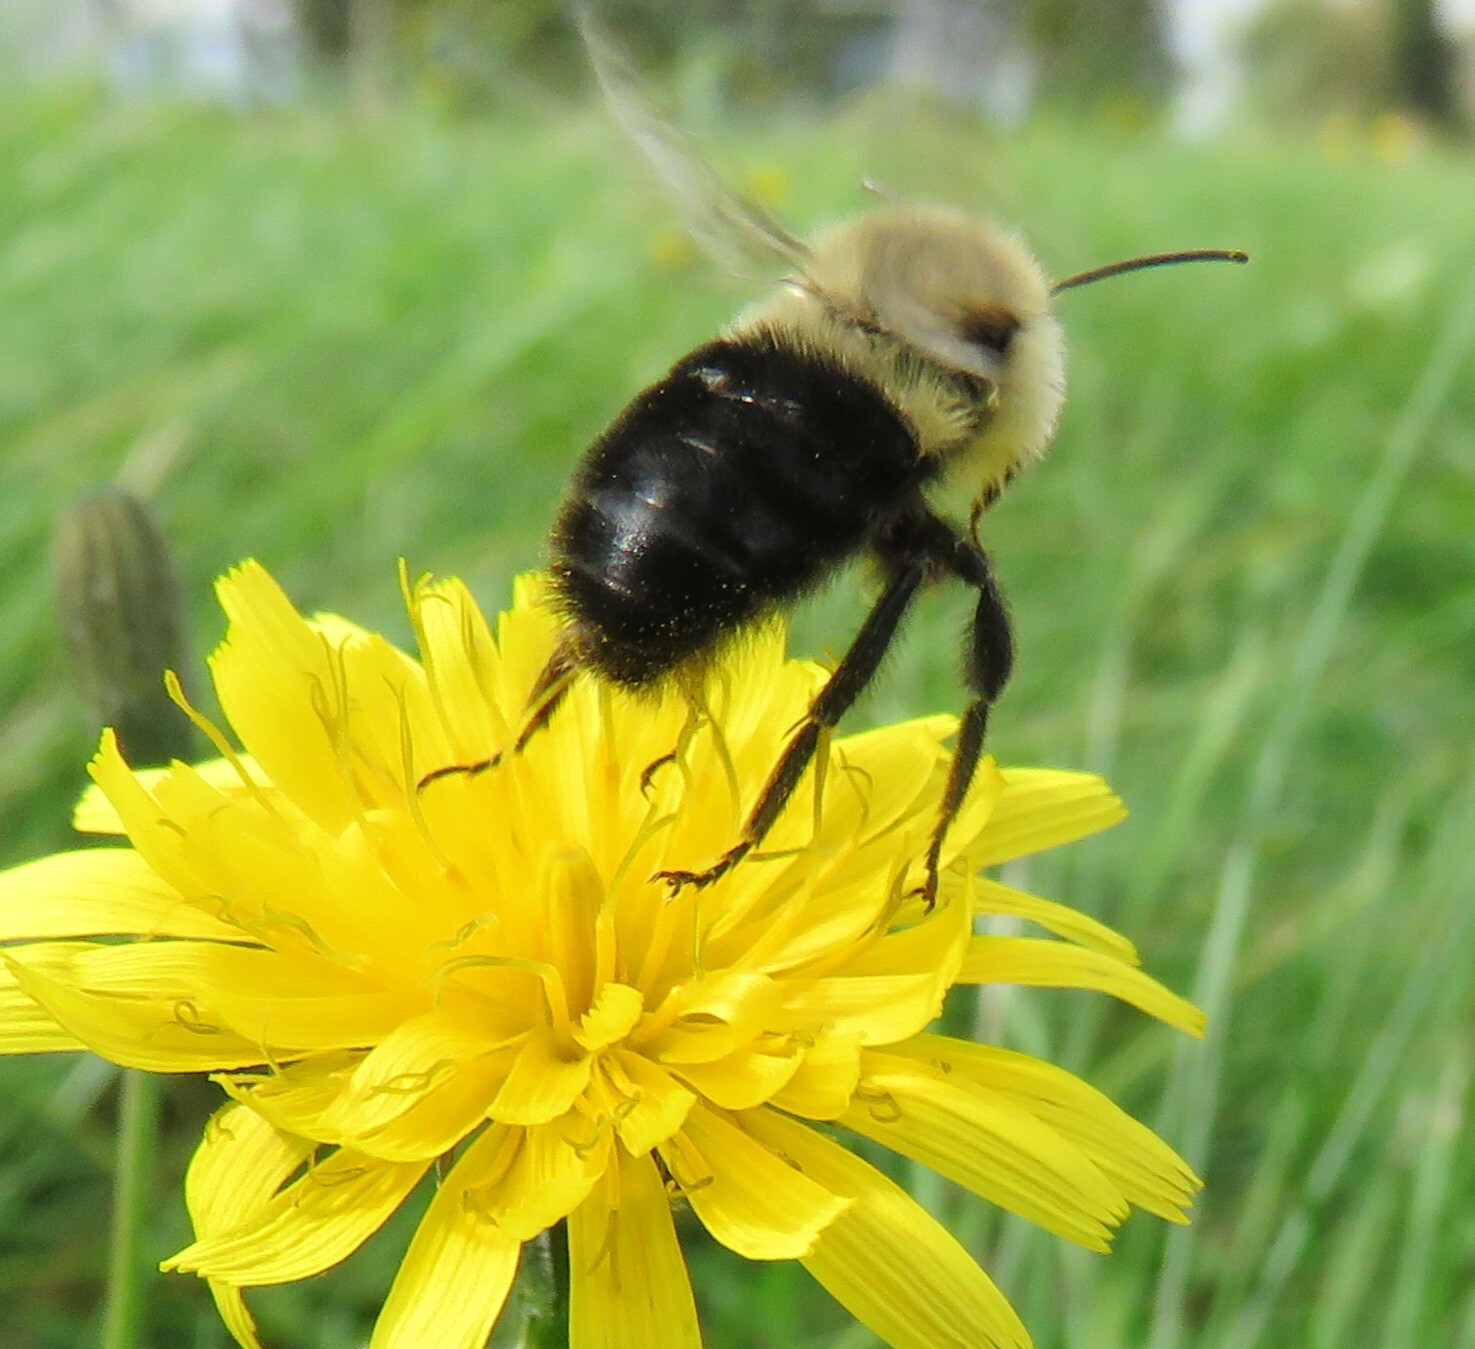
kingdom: Animalia
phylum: Arthropoda
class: Insecta
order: Hymenoptera
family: Apidae
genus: Bombus
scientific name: Bombus impatiens
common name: Common eastern bumble bee
